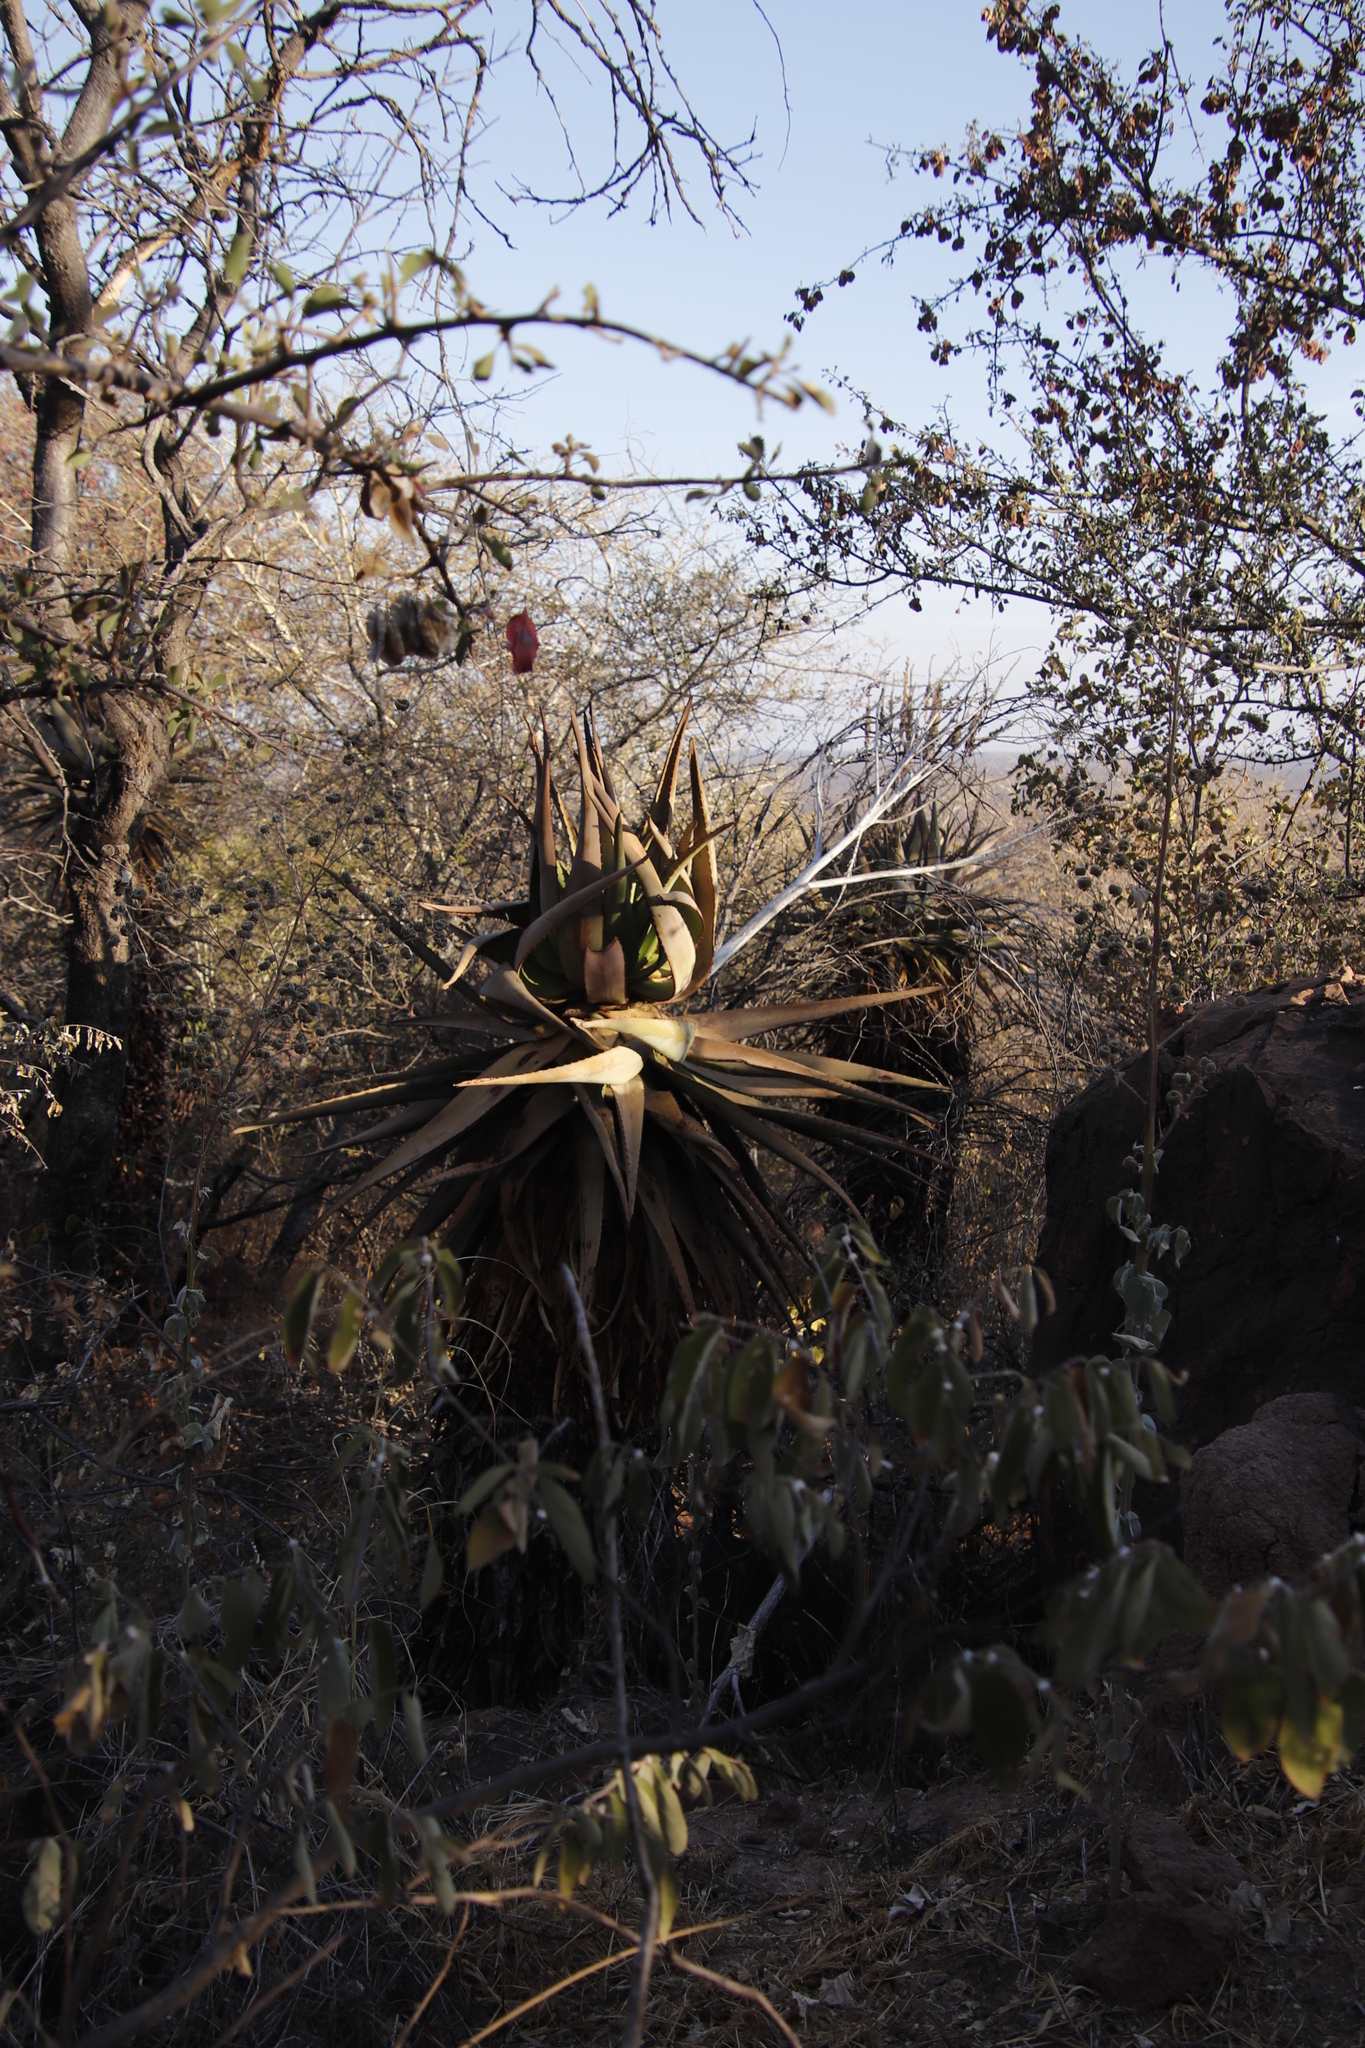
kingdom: Plantae
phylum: Tracheophyta
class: Liliopsida
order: Asparagales
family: Asphodelaceae
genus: Aloe
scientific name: Aloe littoralis
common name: Luanda tree aloe
